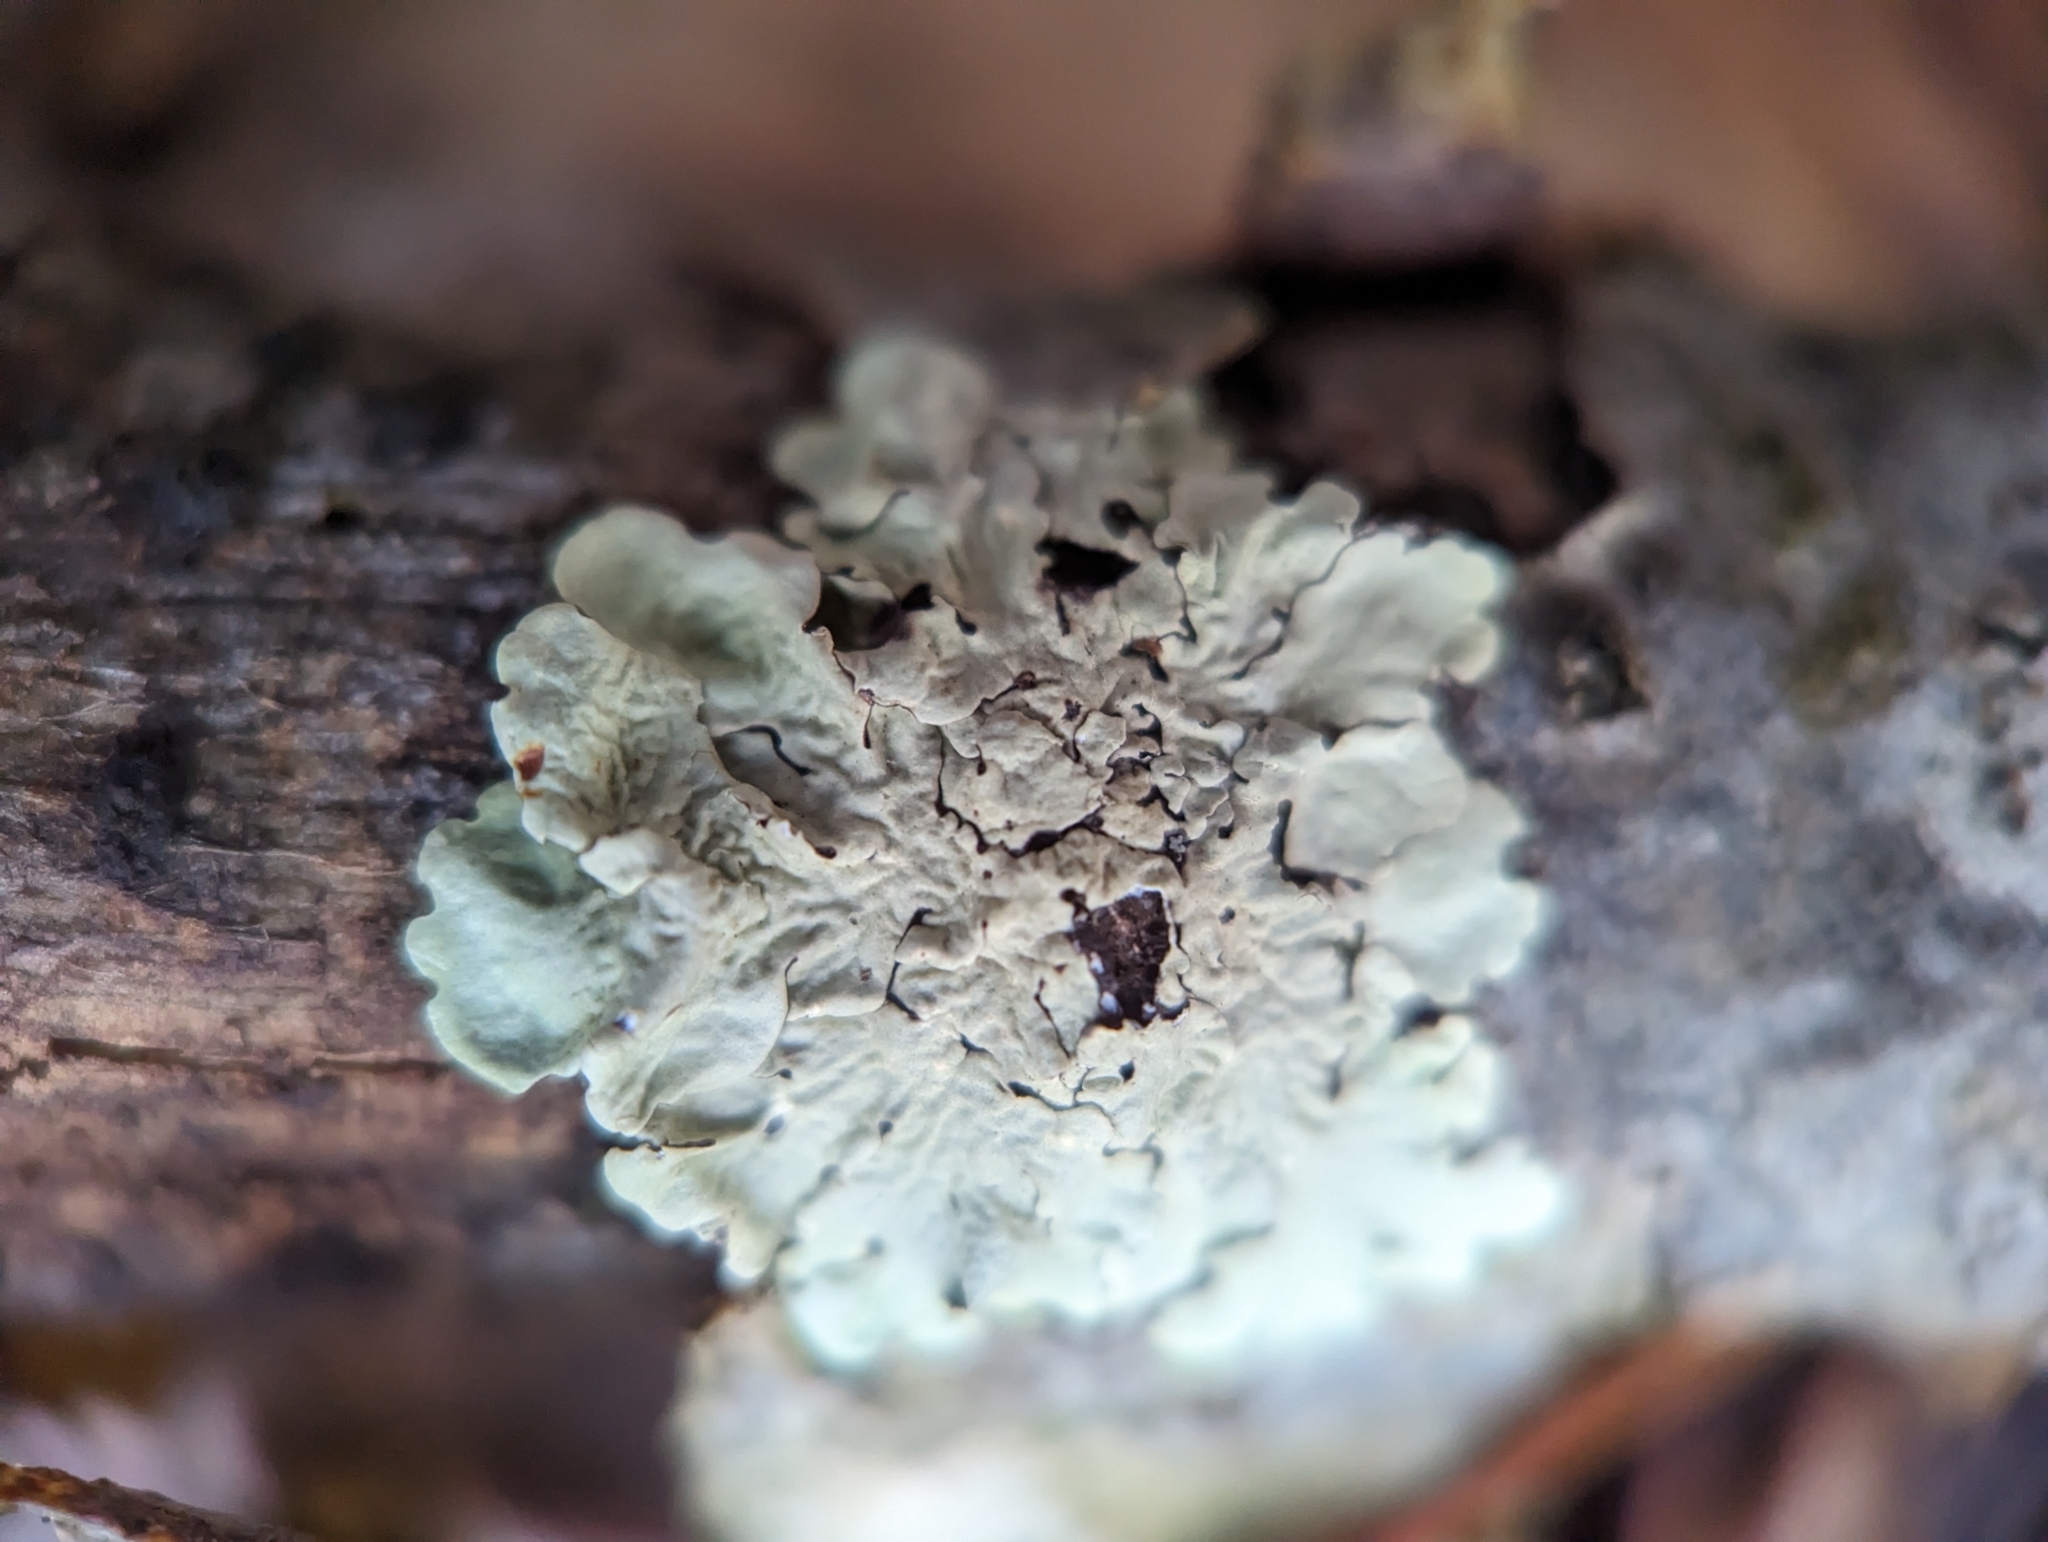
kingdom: Fungi
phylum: Ascomycota
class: Lecanoromycetes
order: Lecanorales
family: Parmeliaceae
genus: Flavoparmelia
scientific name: Flavoparmelia caperata
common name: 40-mile per hour lichen
